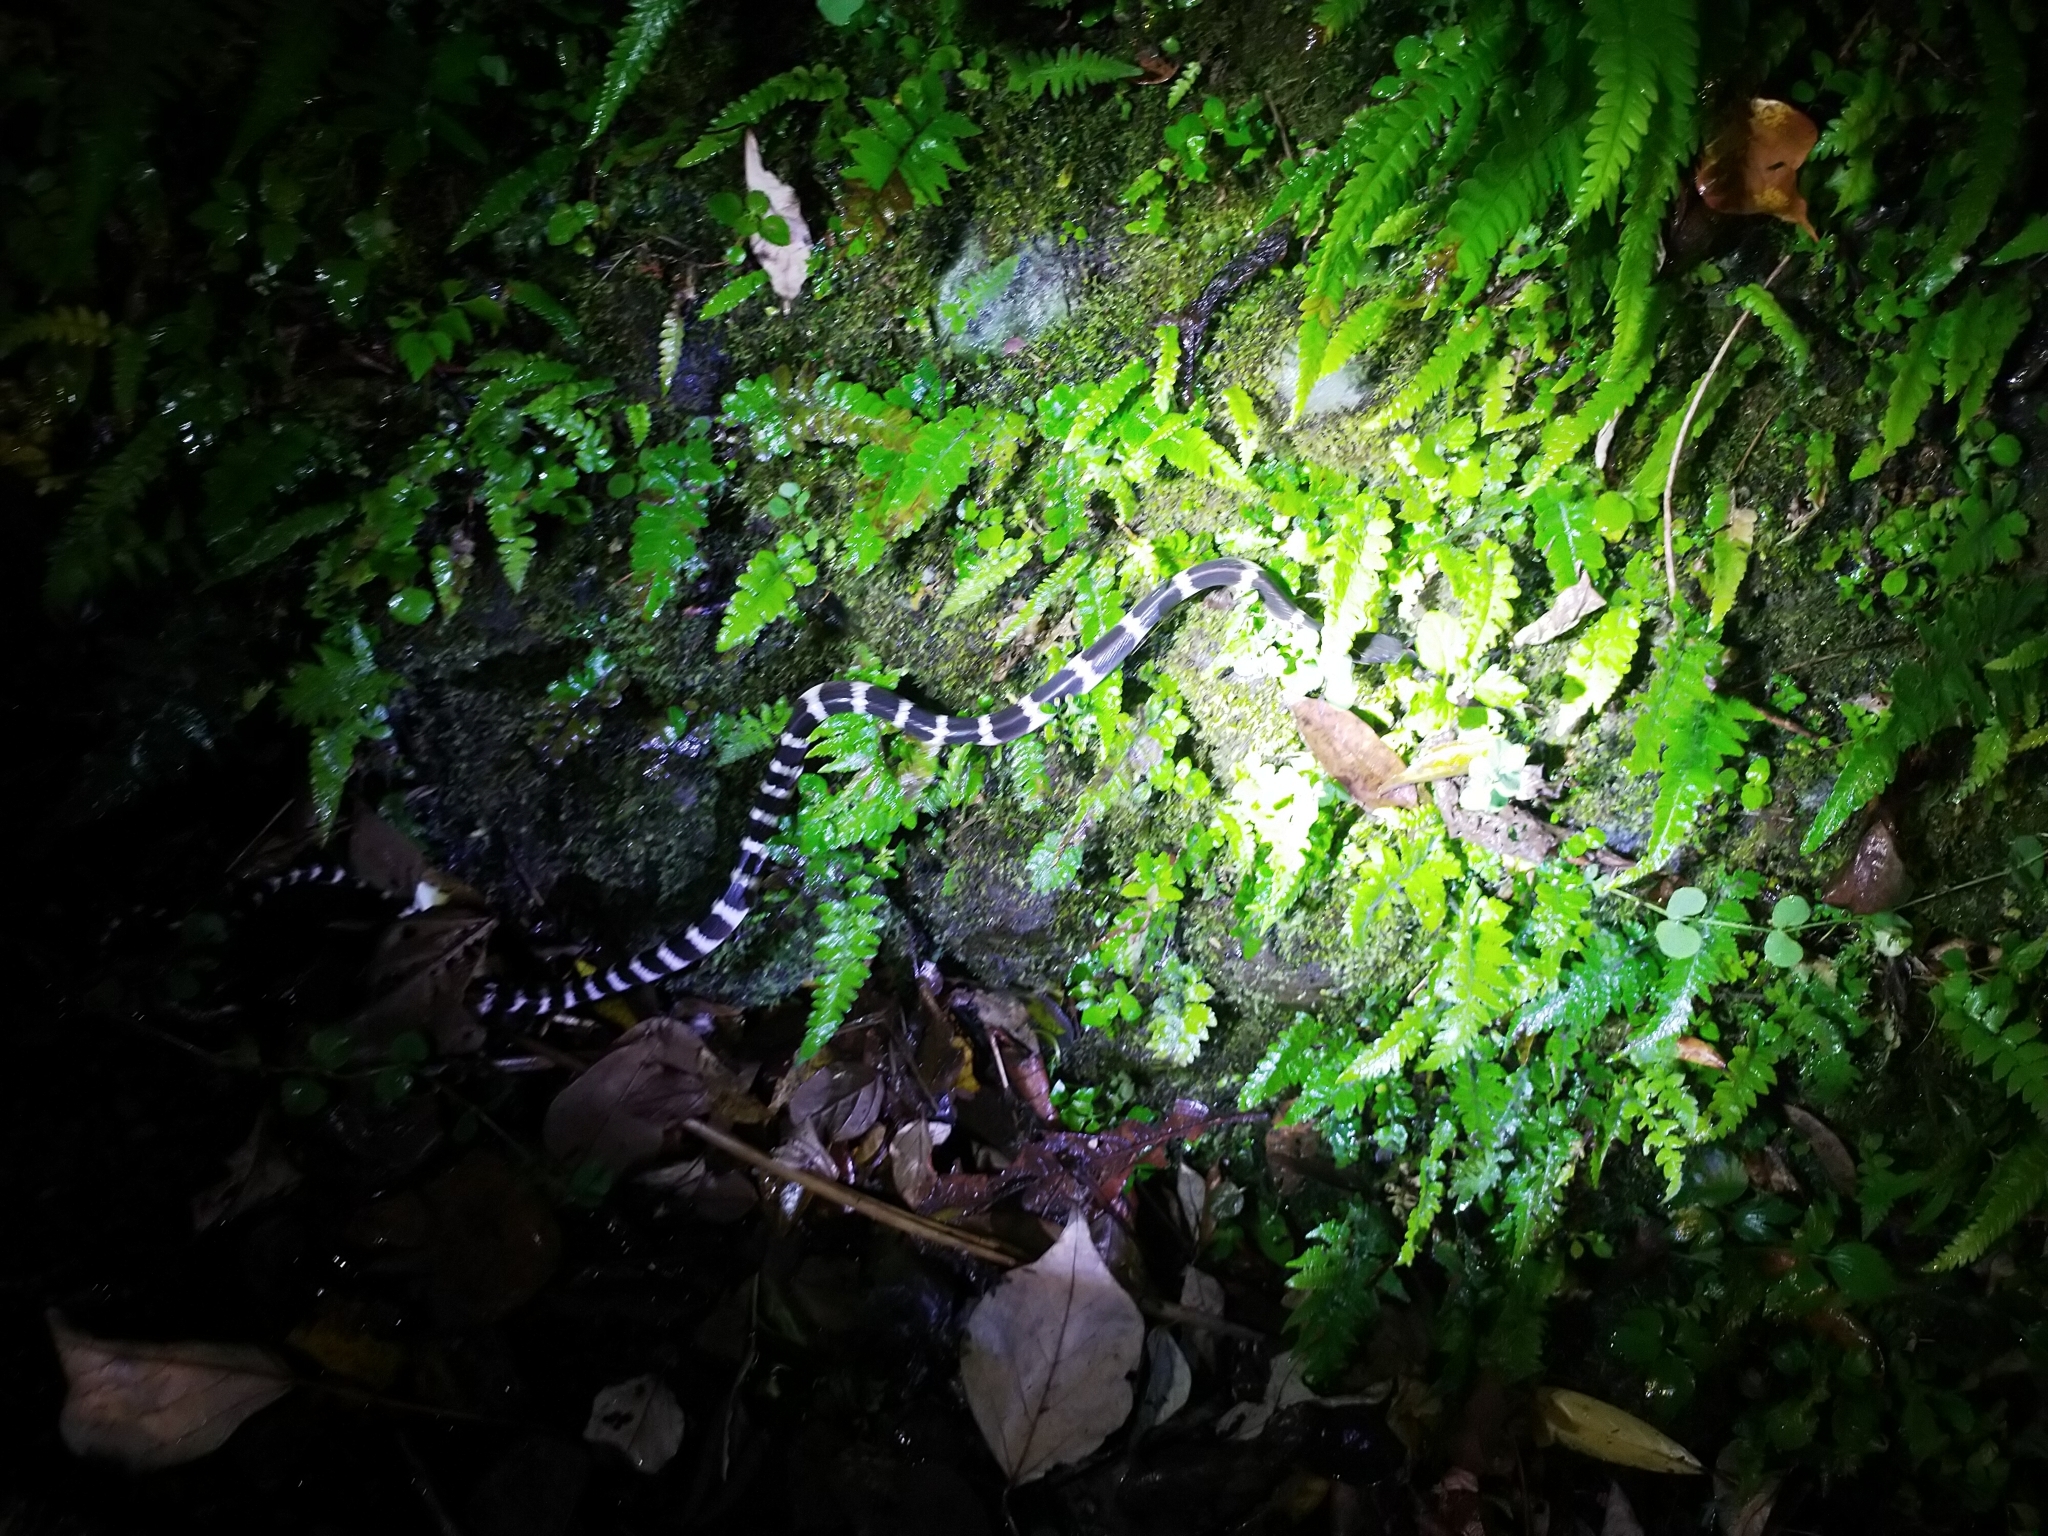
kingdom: Animalia
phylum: Chordata
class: Squamata
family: Elapidae
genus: Bungarus
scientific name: Bungarus multicinctus
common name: Many-banded krait
